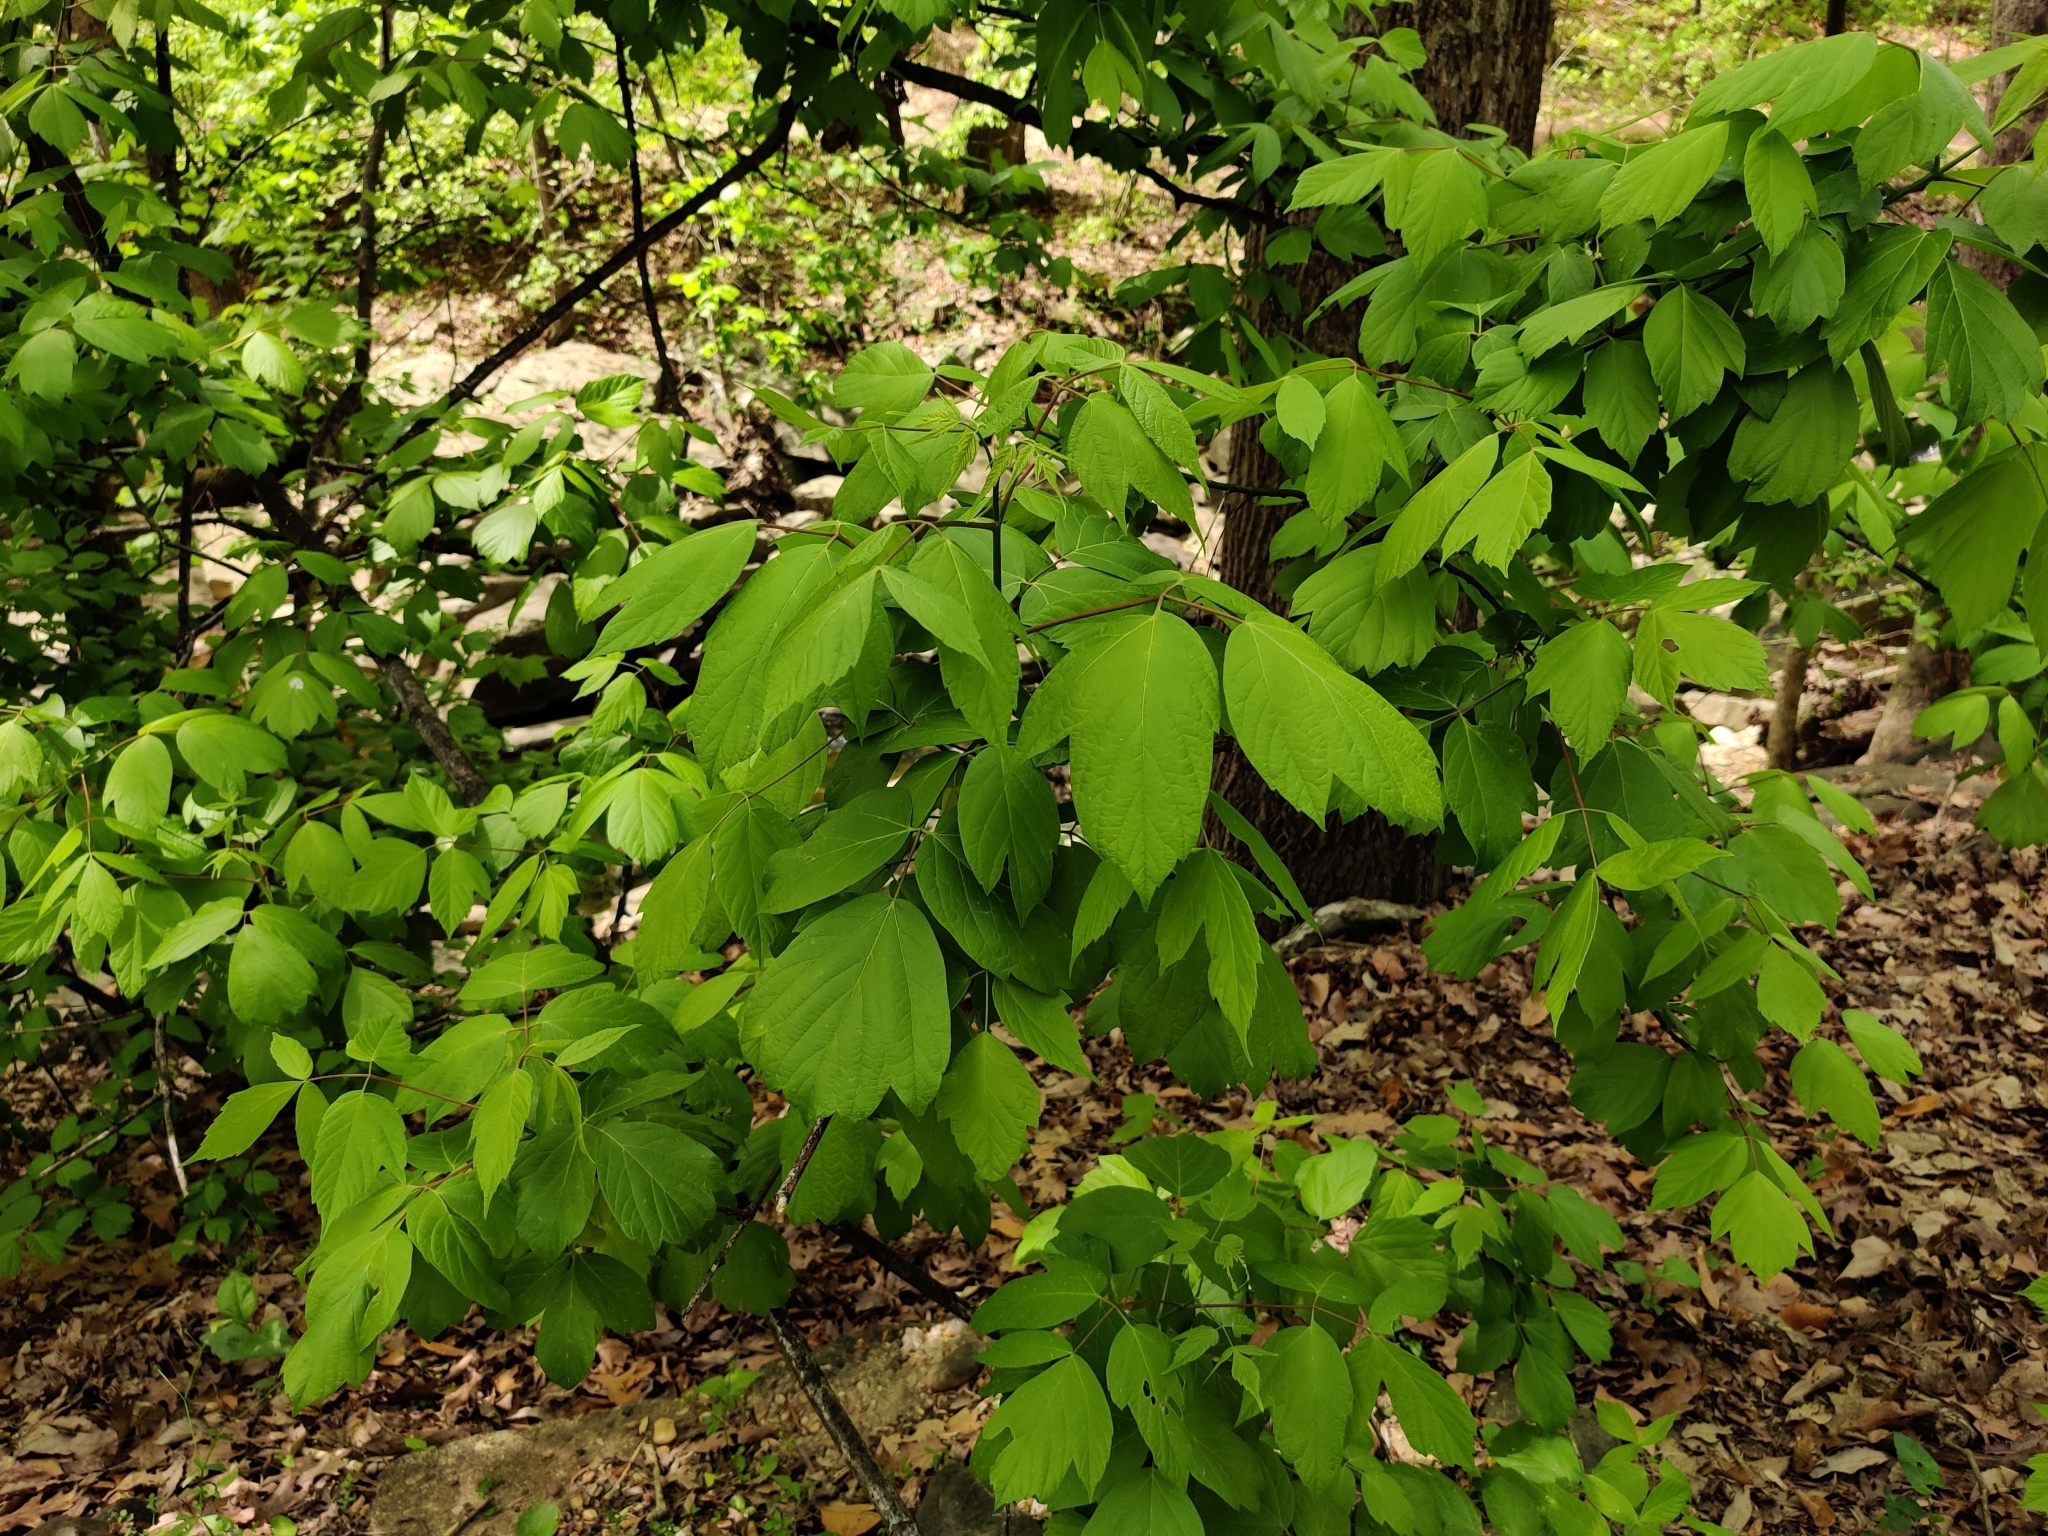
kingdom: Plantae
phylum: Tracheophyta
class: Magnoliopsida
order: Sapindales
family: Sapindaceae
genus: Acer
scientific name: Acer negundo
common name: Ashleaf maple
